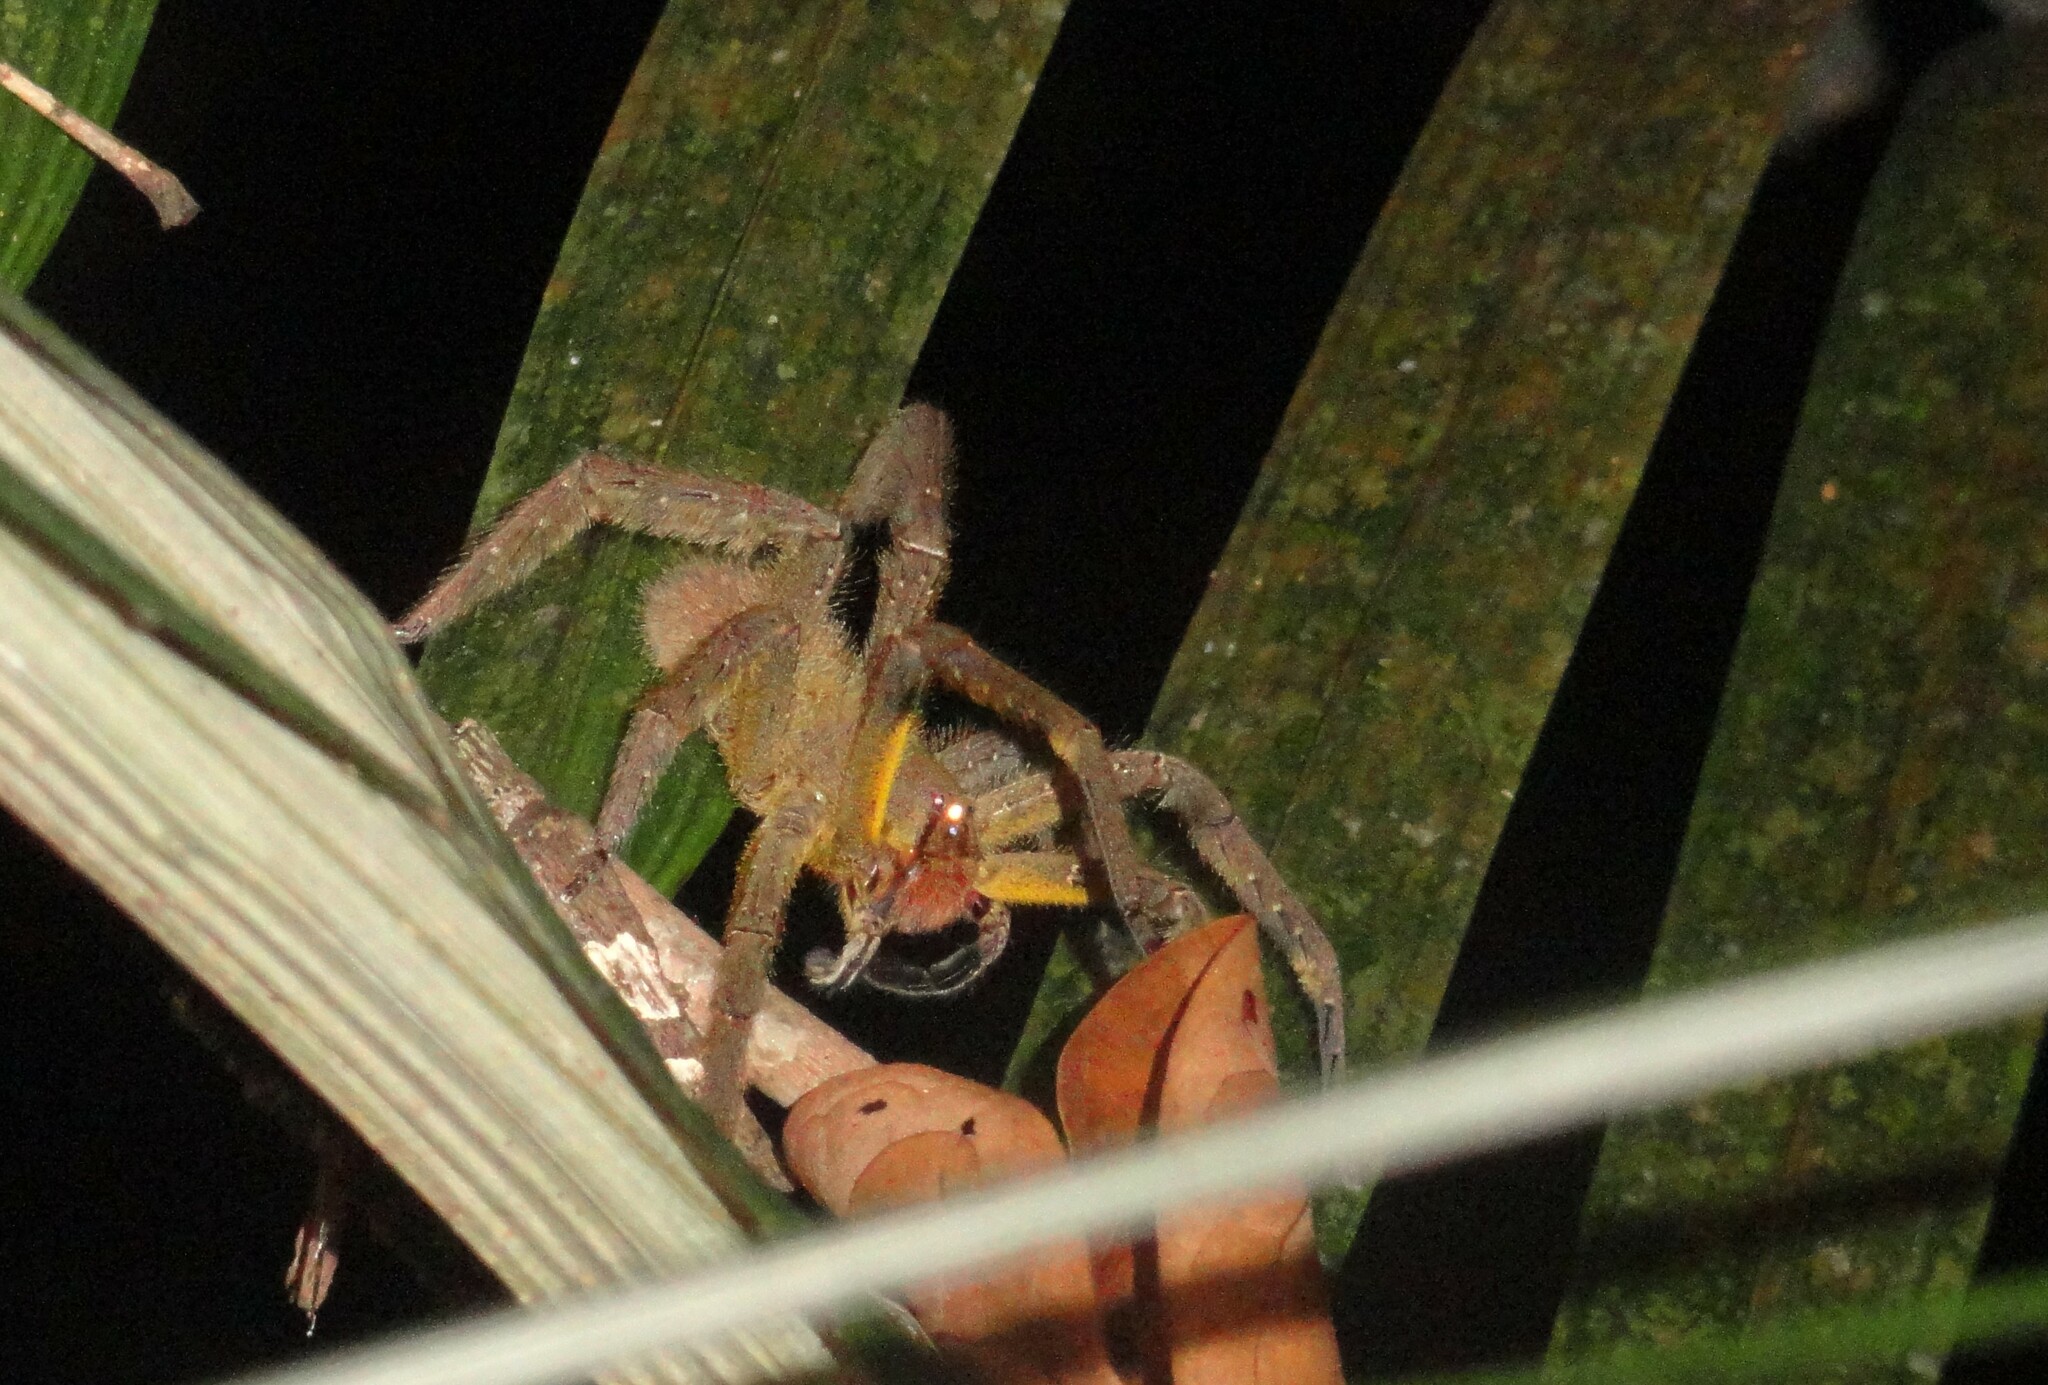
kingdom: Animalia
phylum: Arthropoda
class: Arachnida
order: Araneae
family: Ctenidae
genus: Phoneutria
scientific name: Phoneutria reidyi
